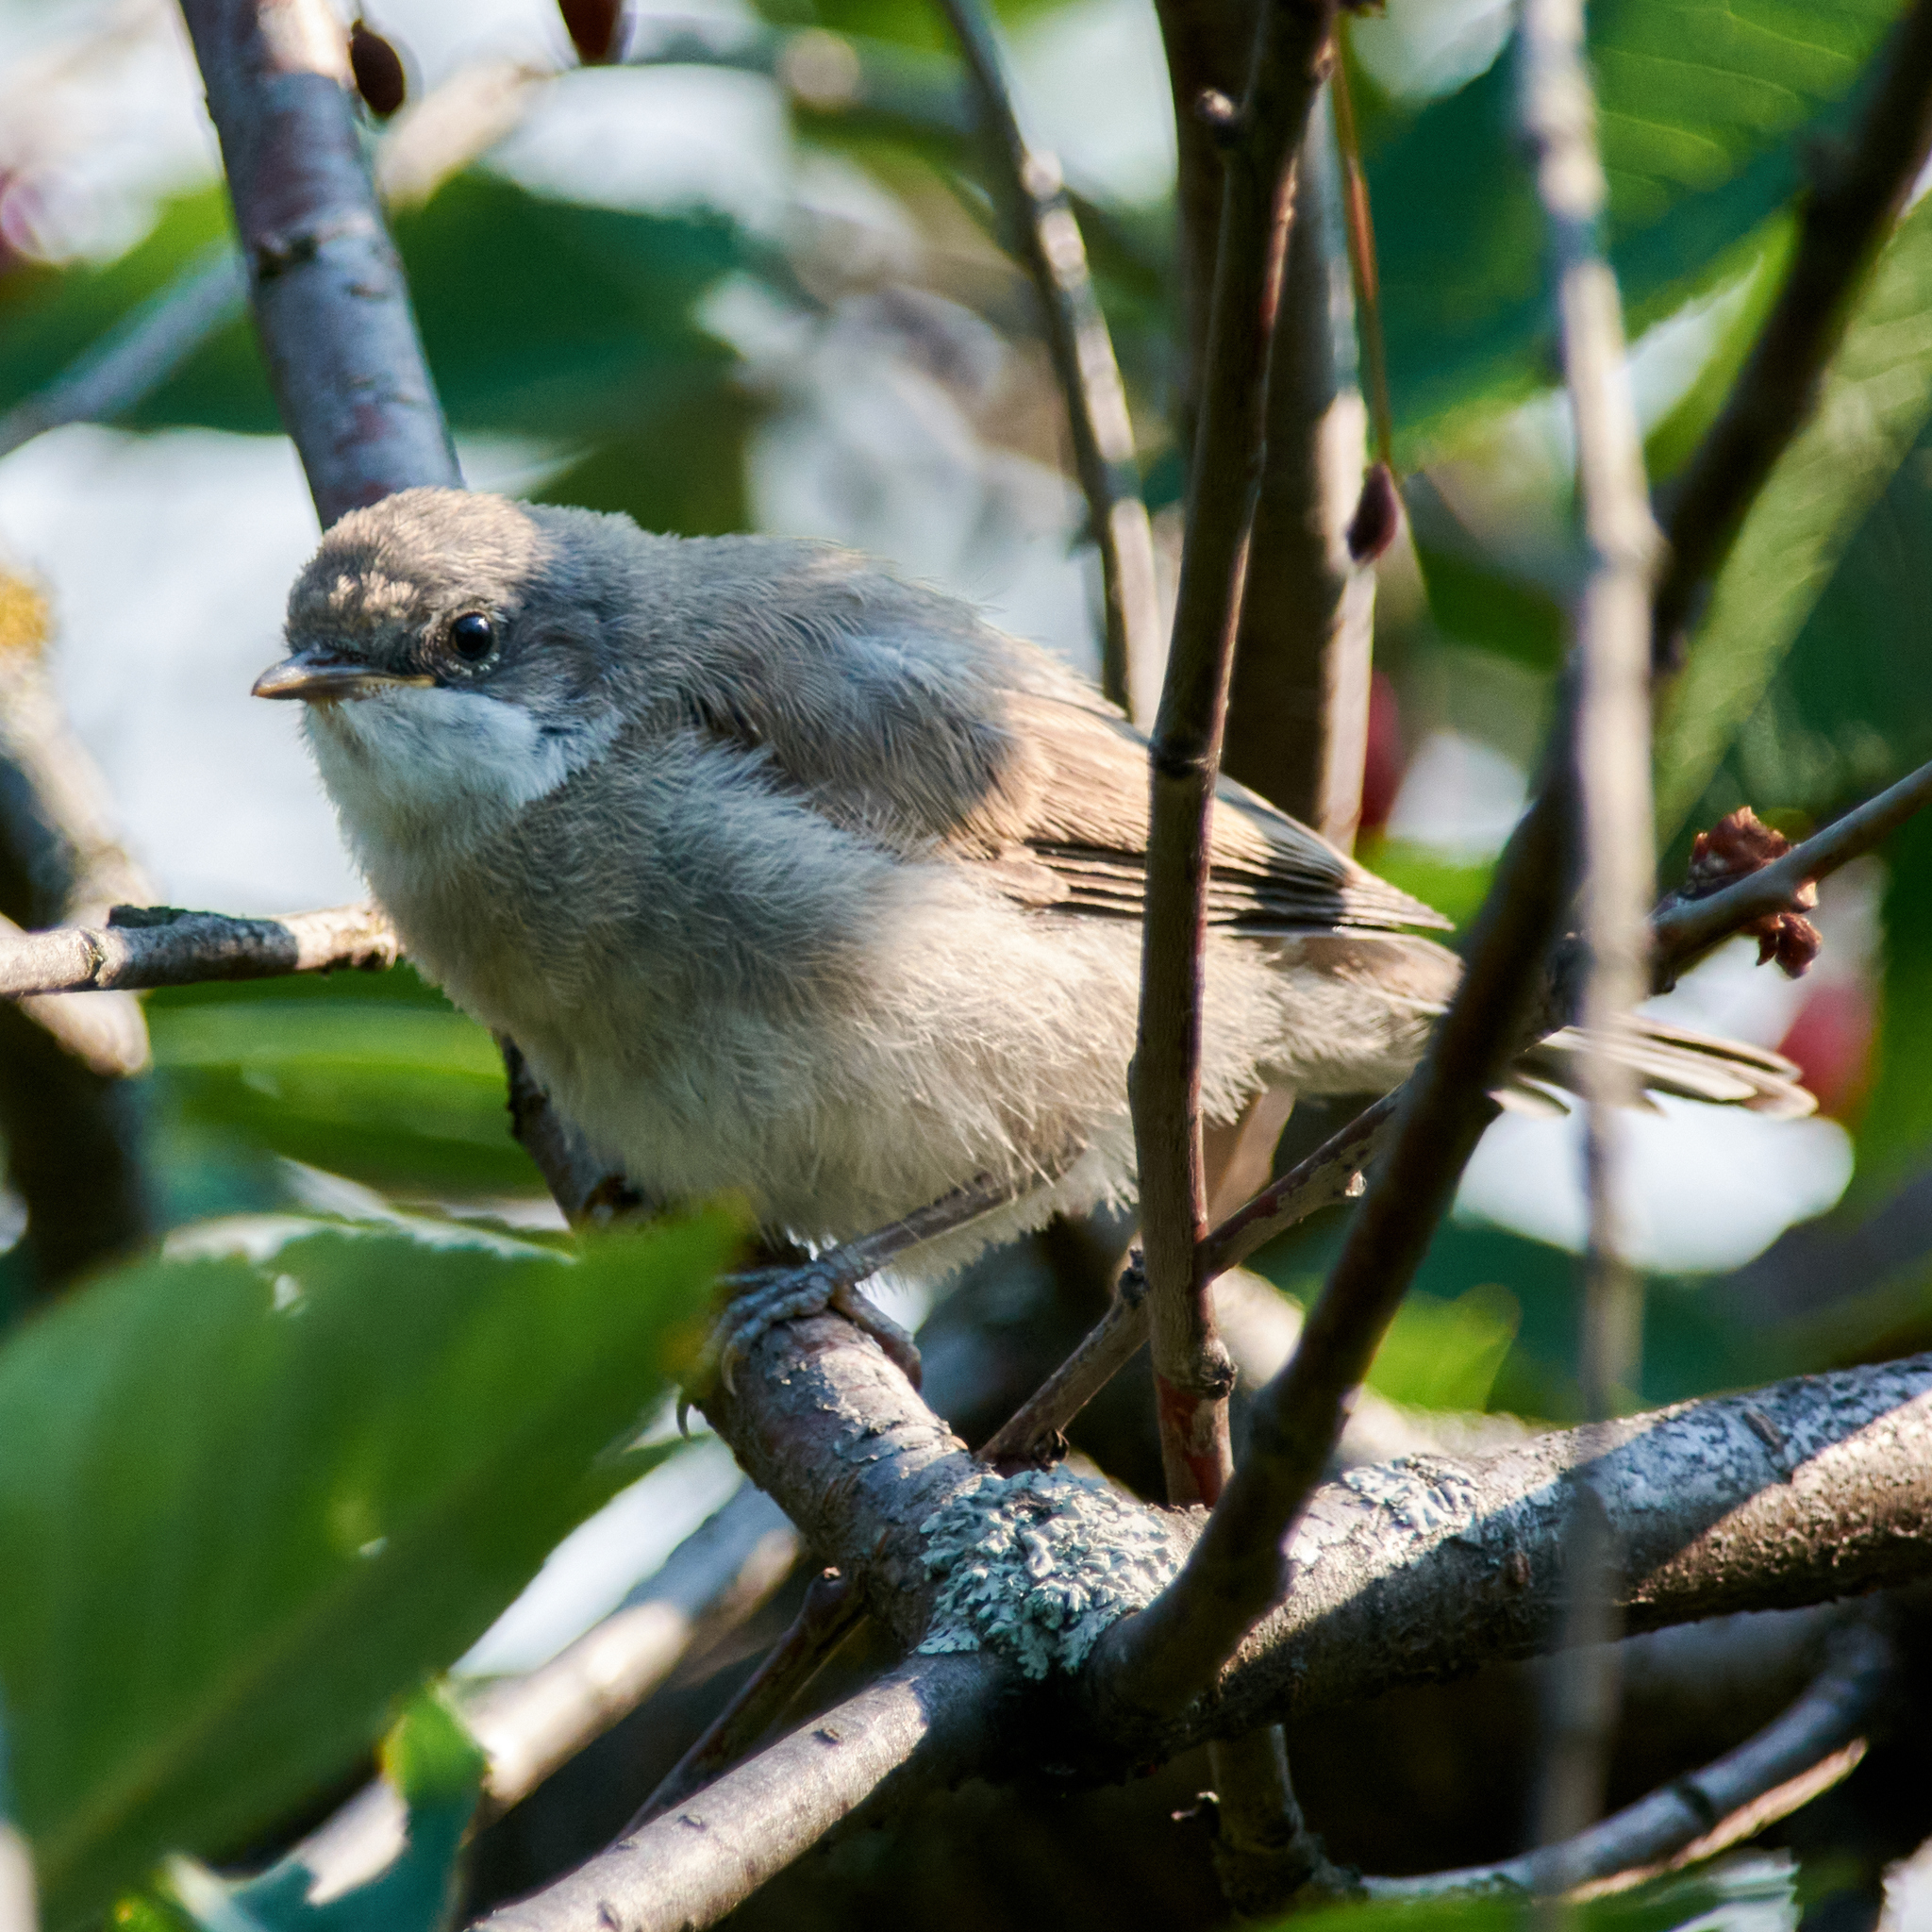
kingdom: Animalia
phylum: Chordata
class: Aves
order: Passeriformes
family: Sylviidae
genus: Sylvia
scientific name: Sylvia curruca
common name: Lesser whitethroat
